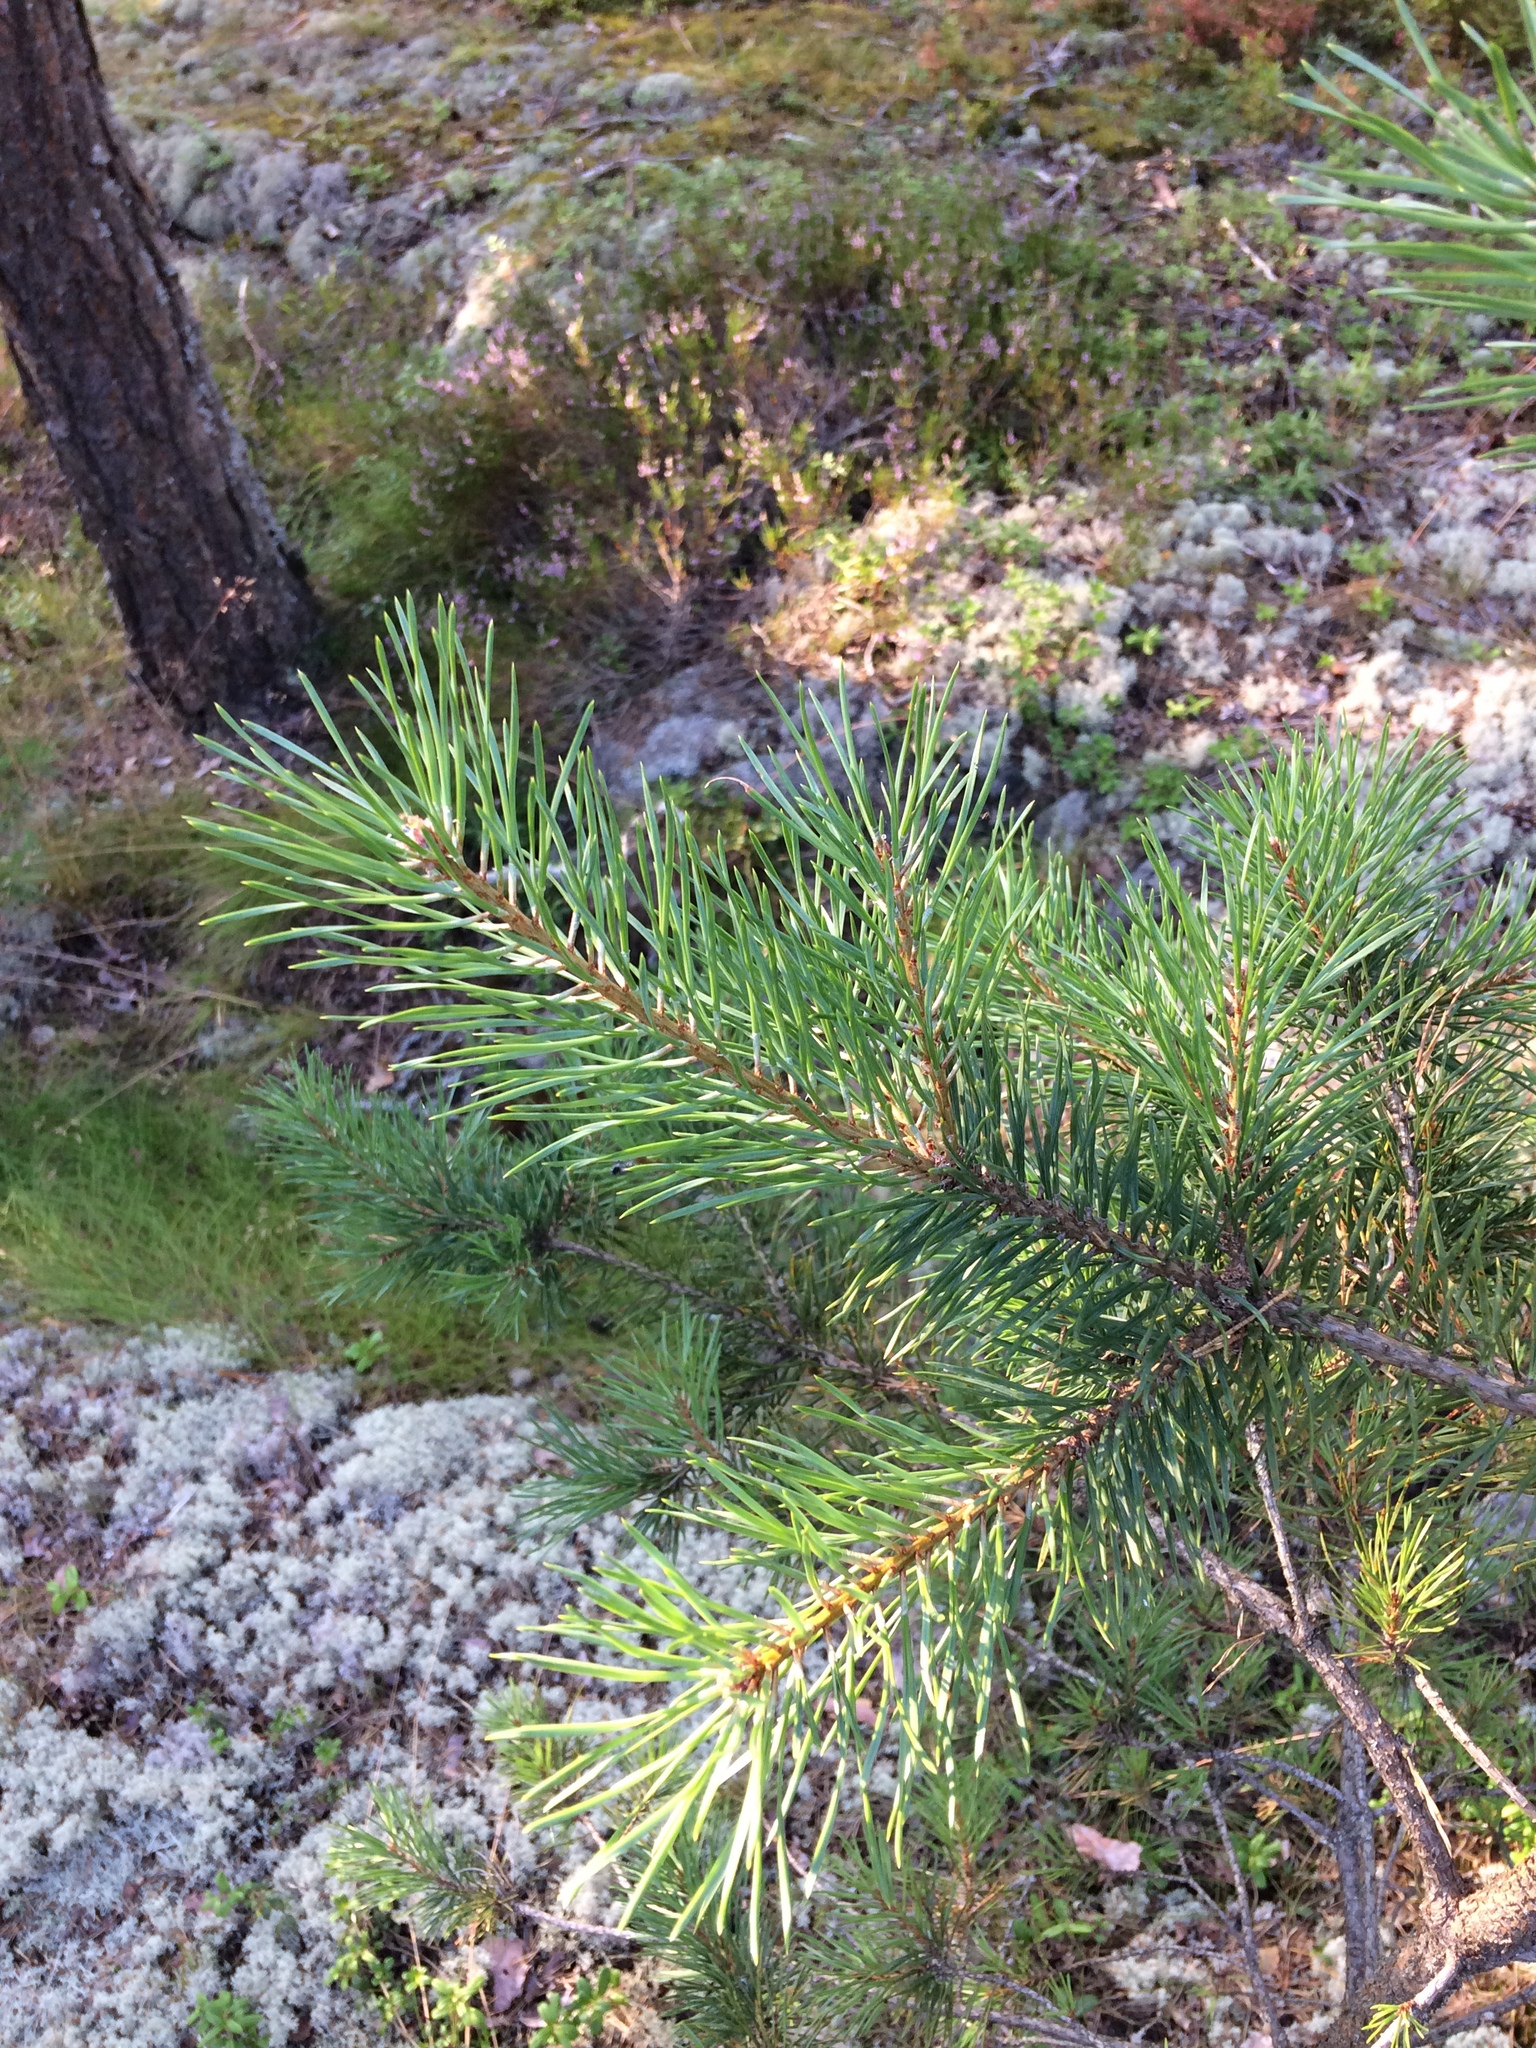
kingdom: Plantae
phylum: Tracheophyta
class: Pinopsida
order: Pinales
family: Pinaceae
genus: Pinus
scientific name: Pinus sylvestris
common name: Scots pine
